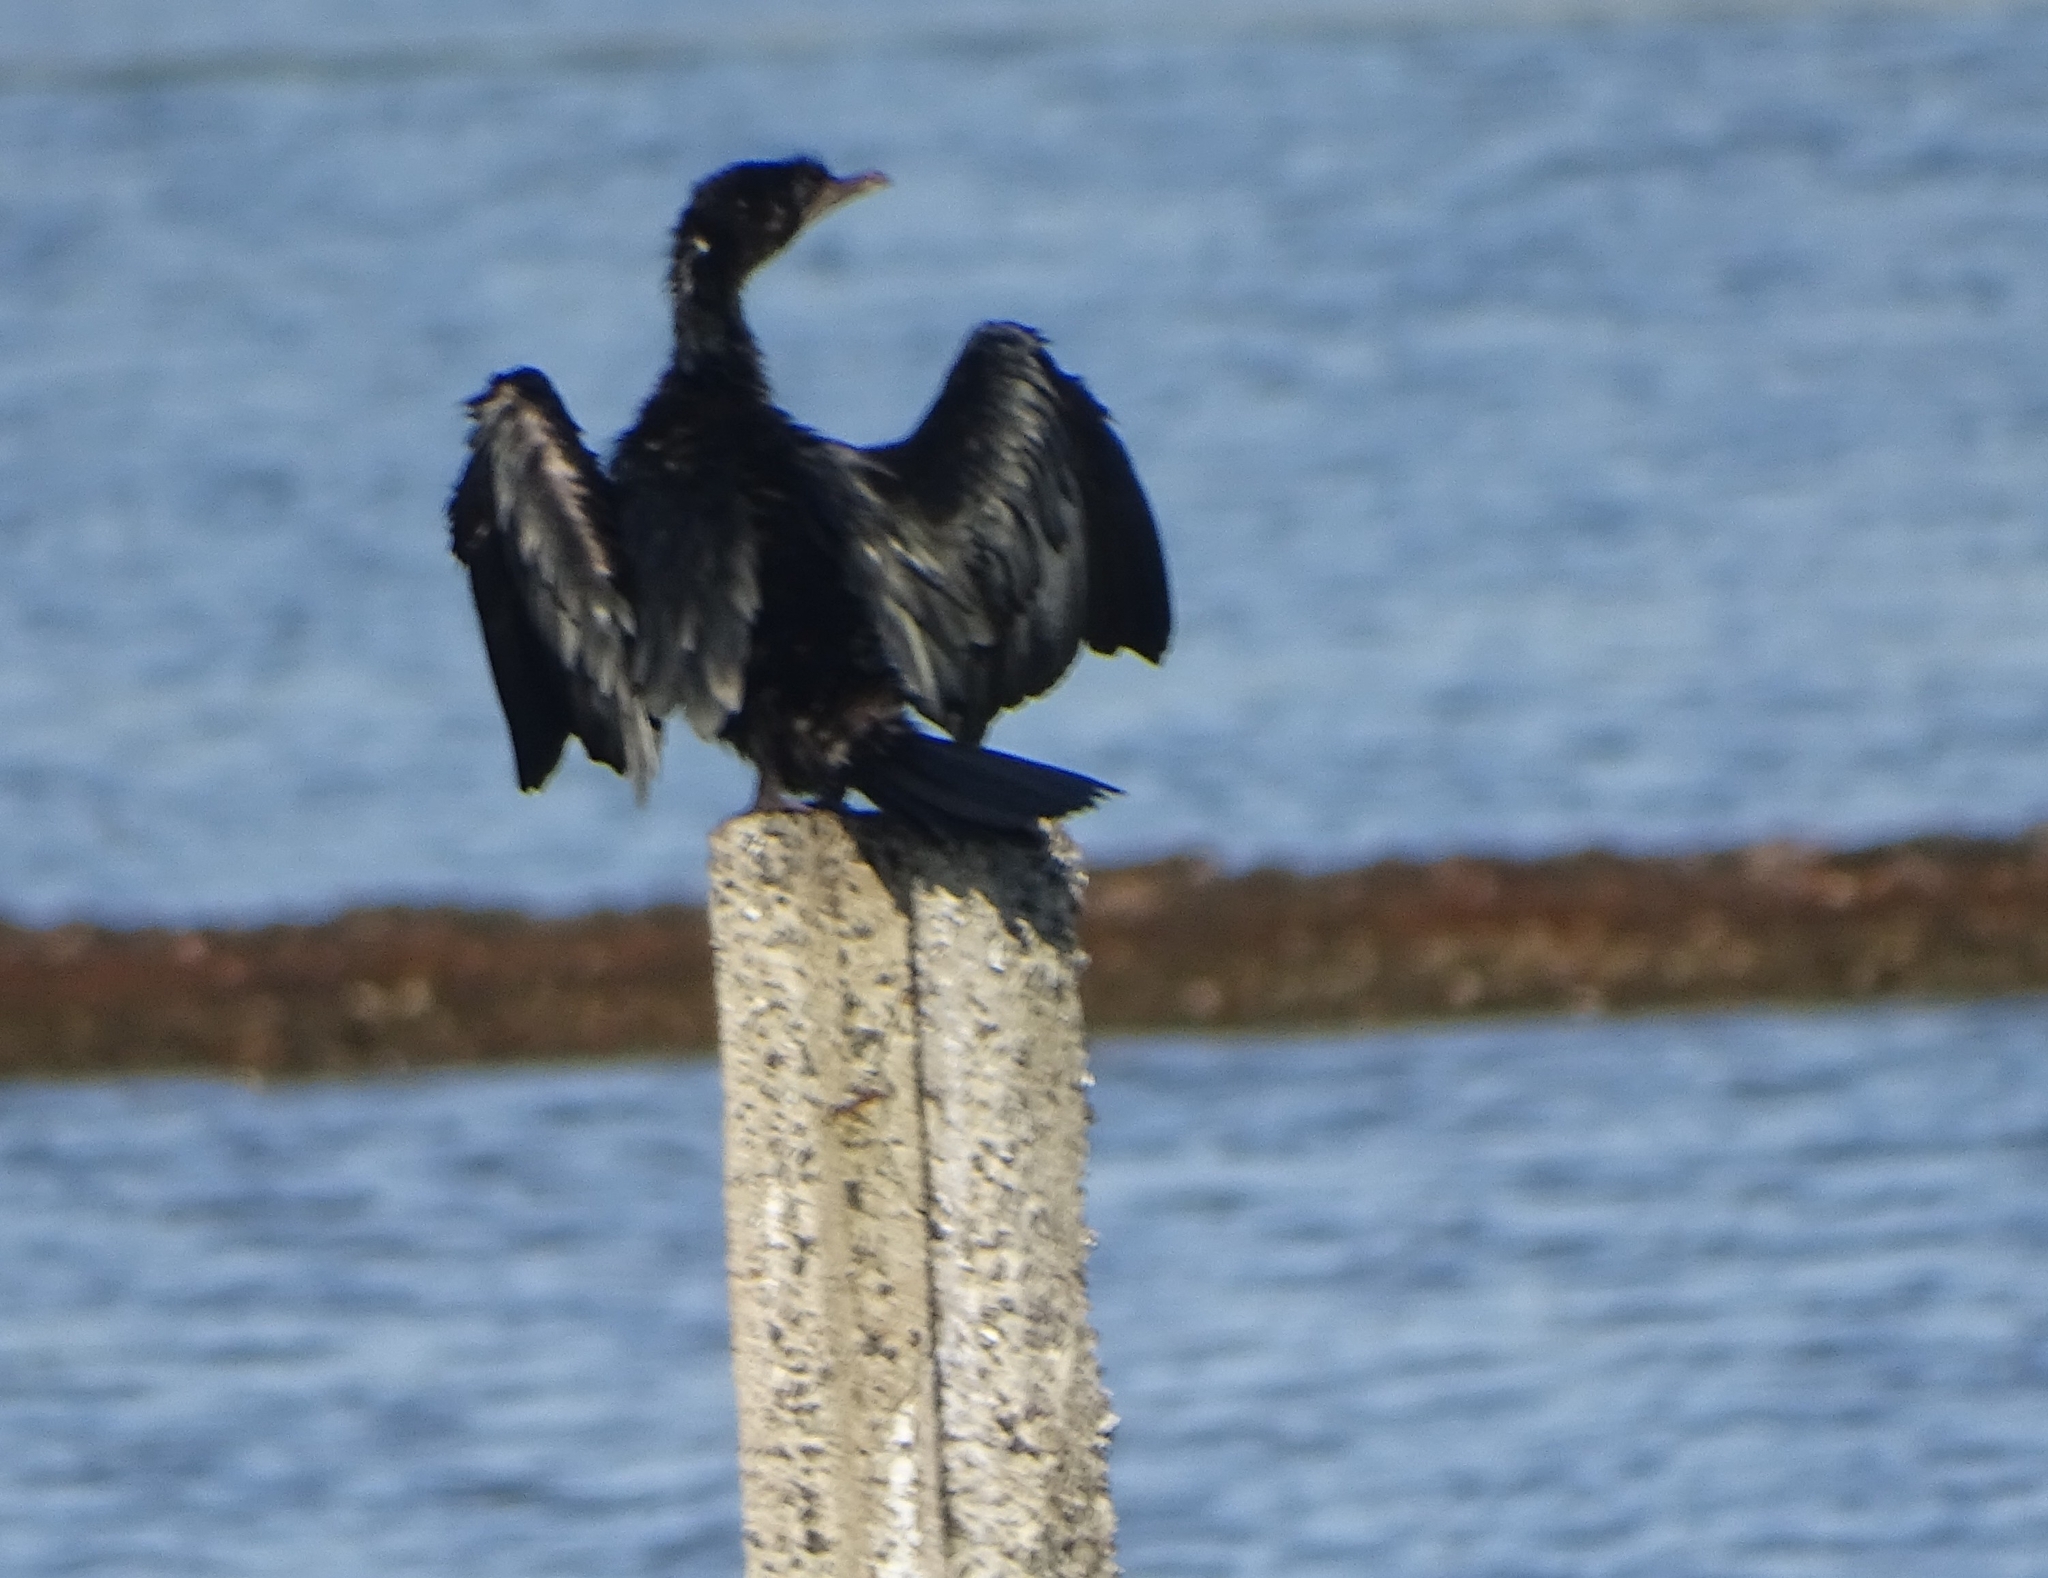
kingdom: Animalia
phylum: Chordata
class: Aves
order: Suliformes
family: Phalacrocoracidae
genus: Microcarbo
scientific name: Microcarbo niger
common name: Little cormorant
